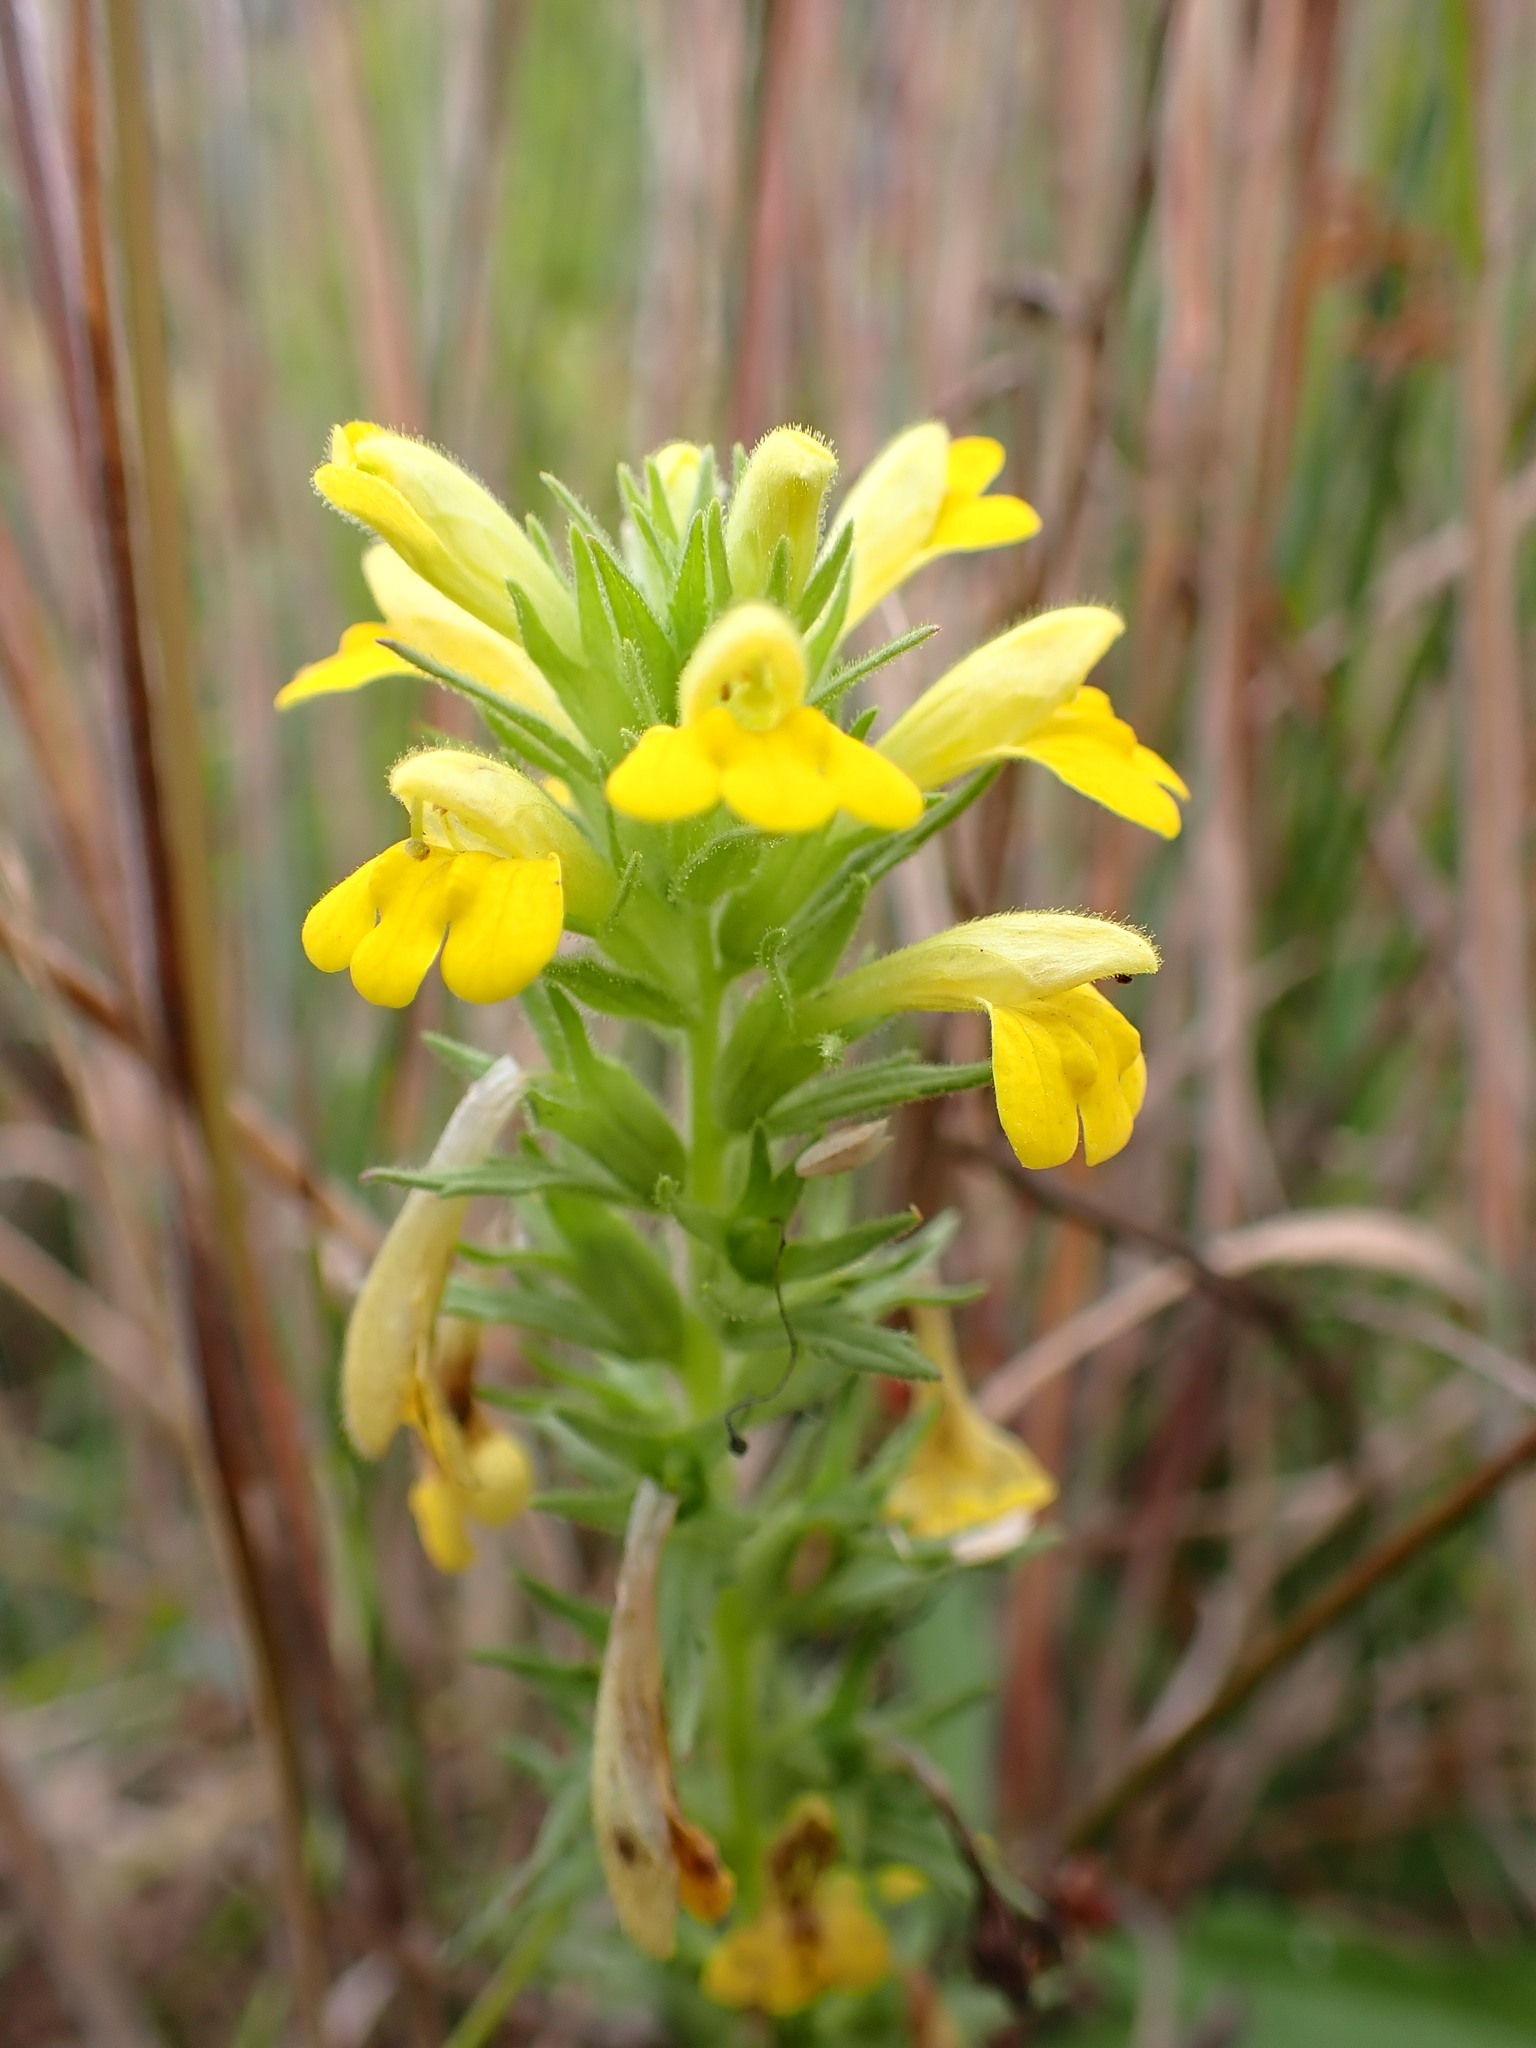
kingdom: Plantae
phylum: Tracheophyta
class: Magnoliopsida
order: Lamiales
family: Orobanchaceae
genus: Bellardia
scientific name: Bellardia viscosa
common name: Sticky parentucellia
